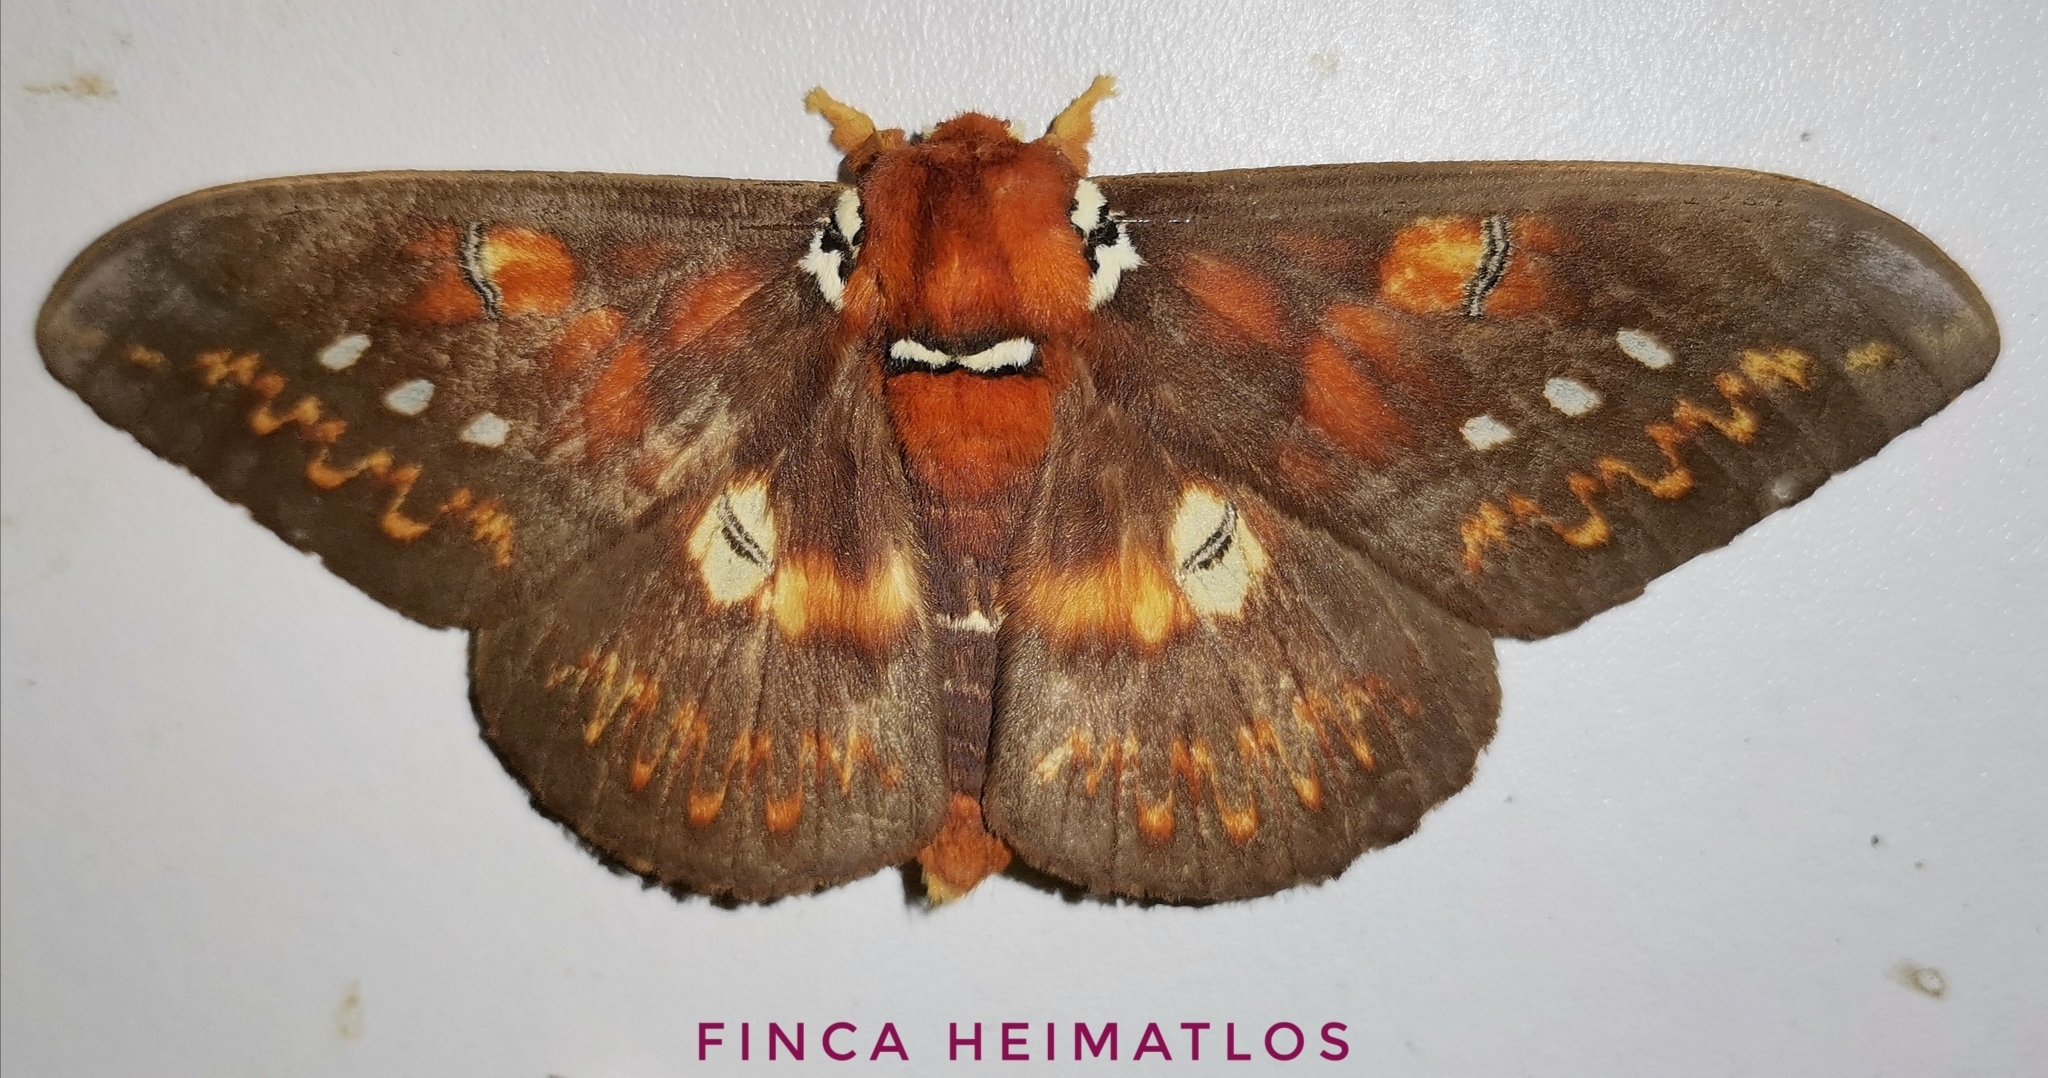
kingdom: Animalia
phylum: Arthropoda
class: Insecta
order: Lepidoptera
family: Saturniidae
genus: Procitheronia
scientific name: Procitheronia fenestrata
